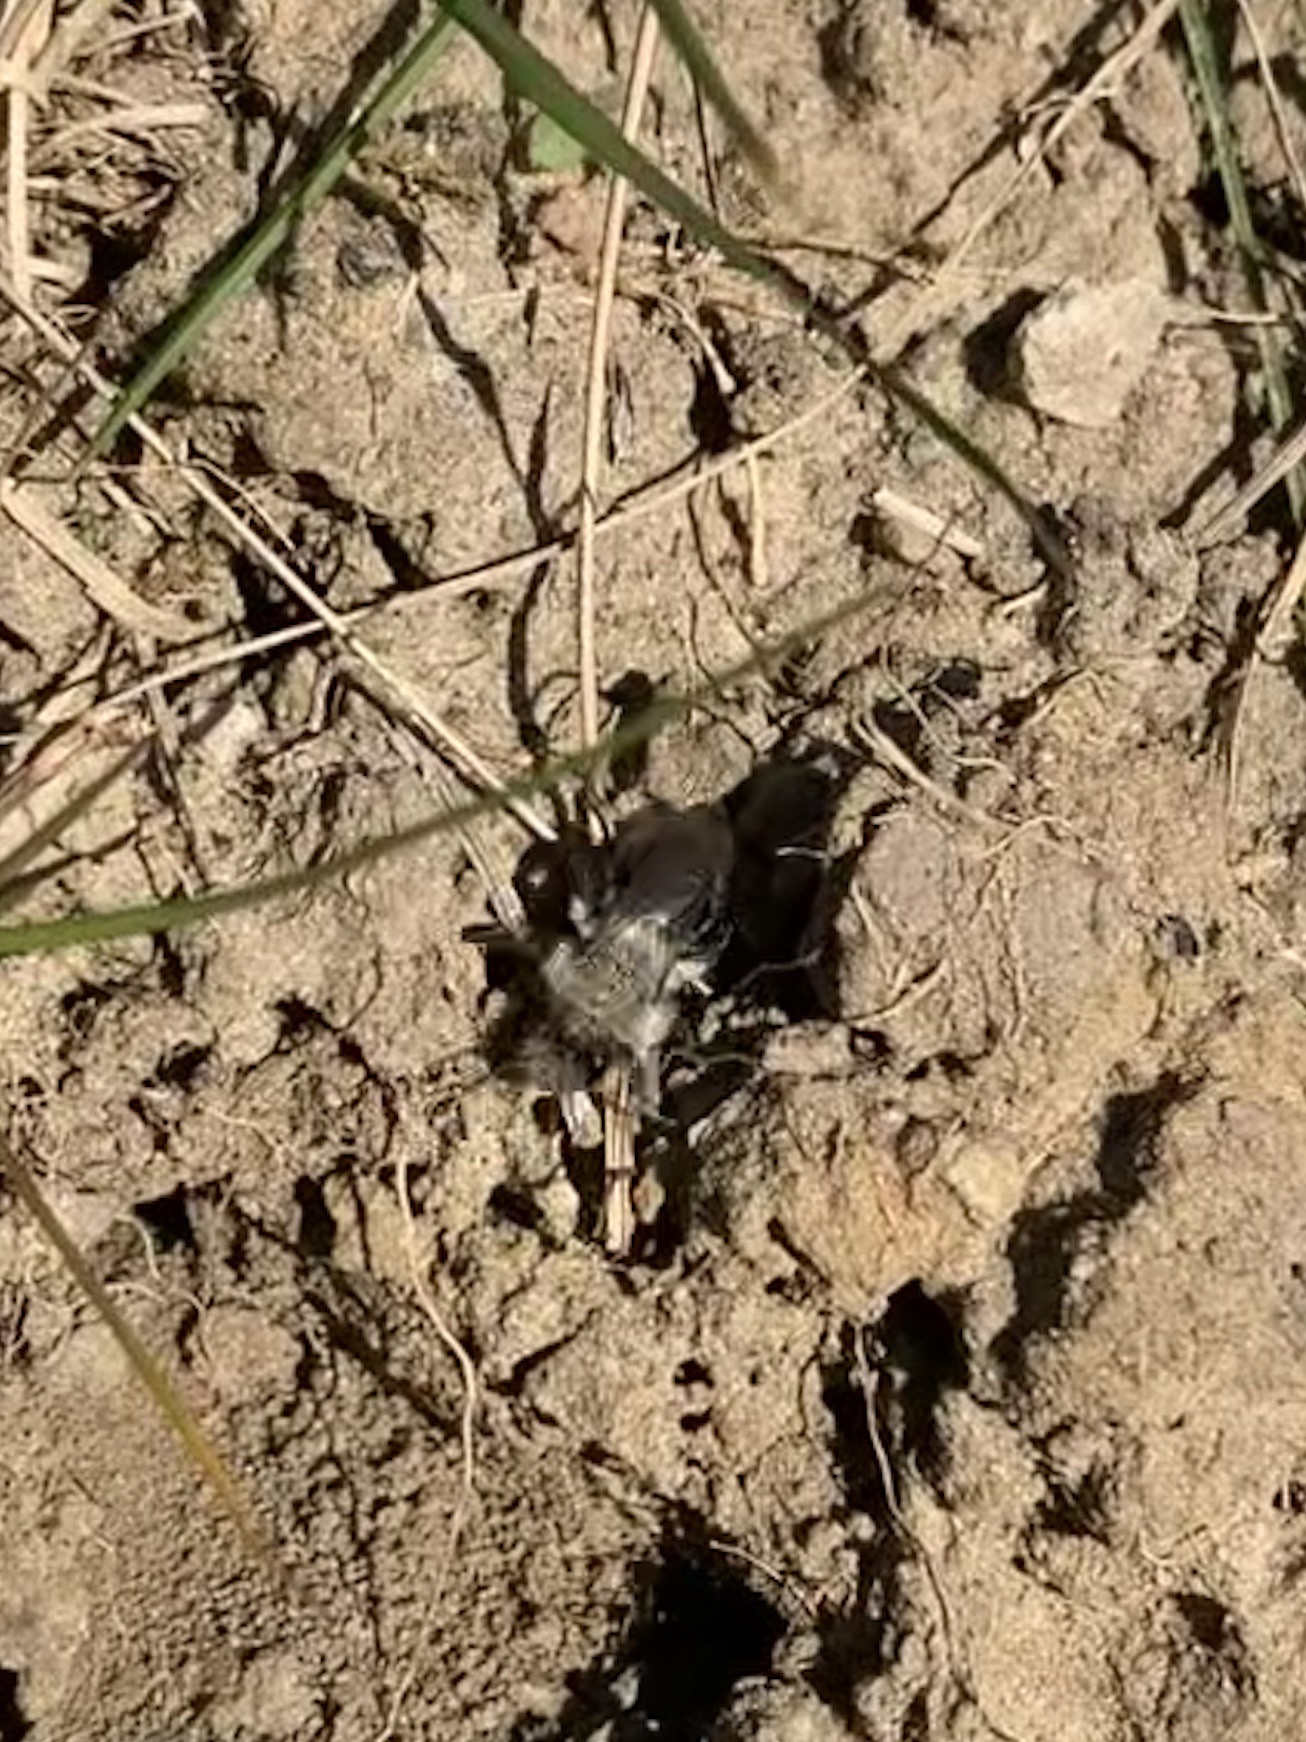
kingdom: Animalia
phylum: Arthropoda
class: Insecta
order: Hymenoptera
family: Andrenidae
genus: Andrena
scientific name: Andrena vaga
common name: Grey-backed mining bee
